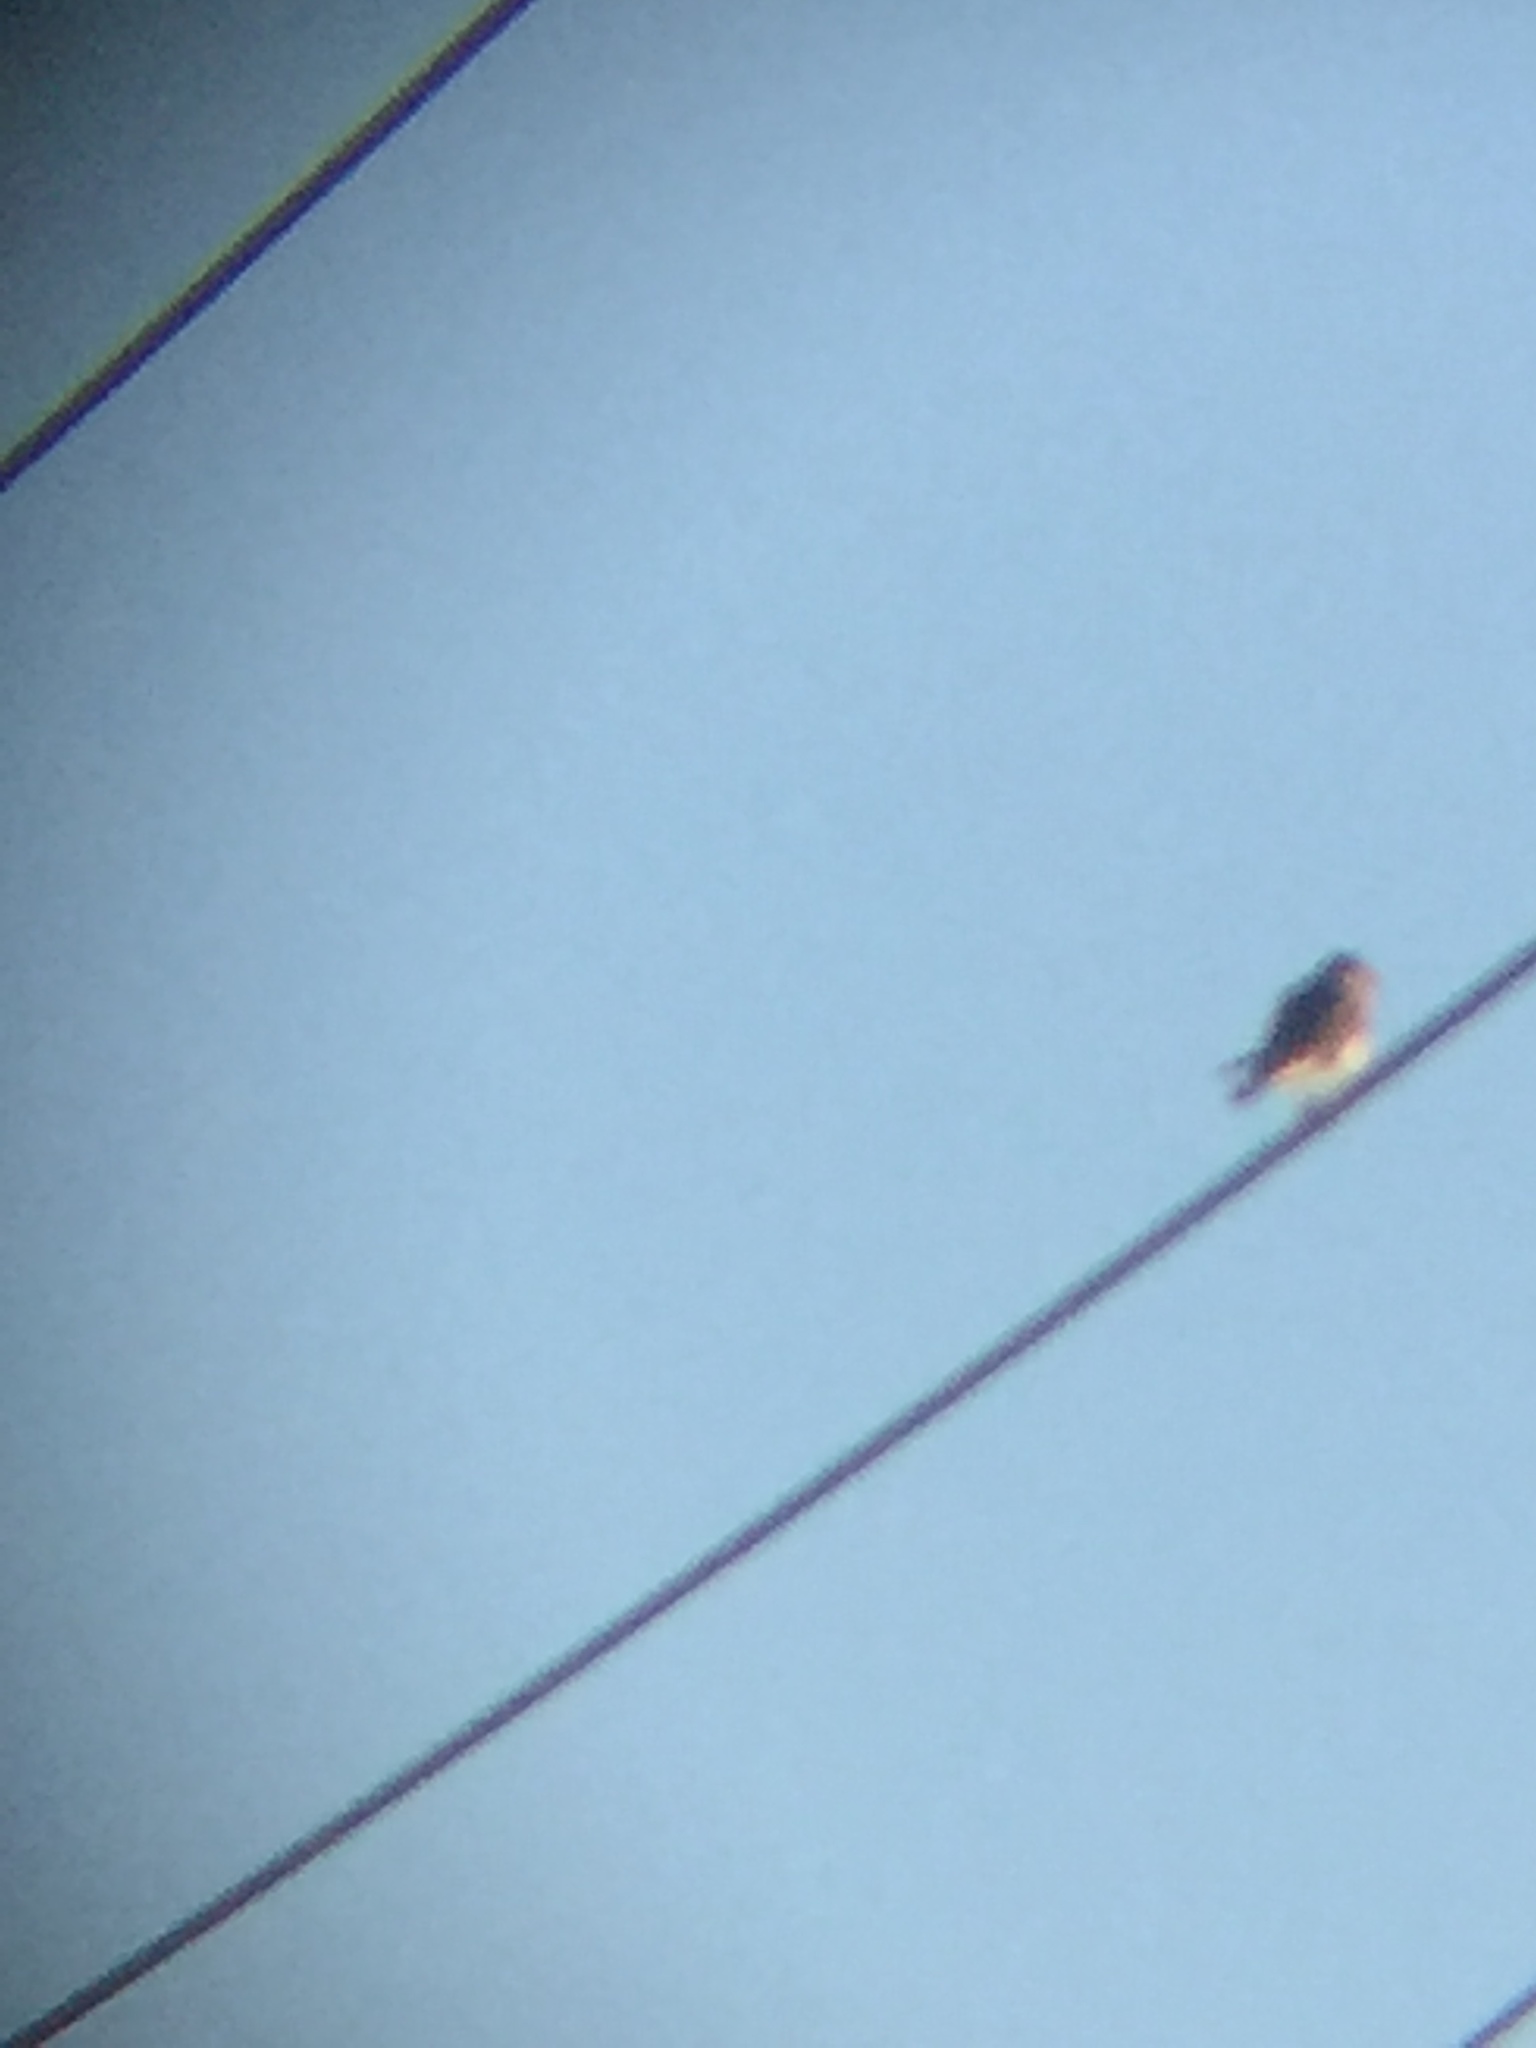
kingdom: Animalia
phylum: Chordata
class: Aves
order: Falconiformes
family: Falconidae
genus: Falco
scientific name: Falco sparverius
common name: American kestrel
